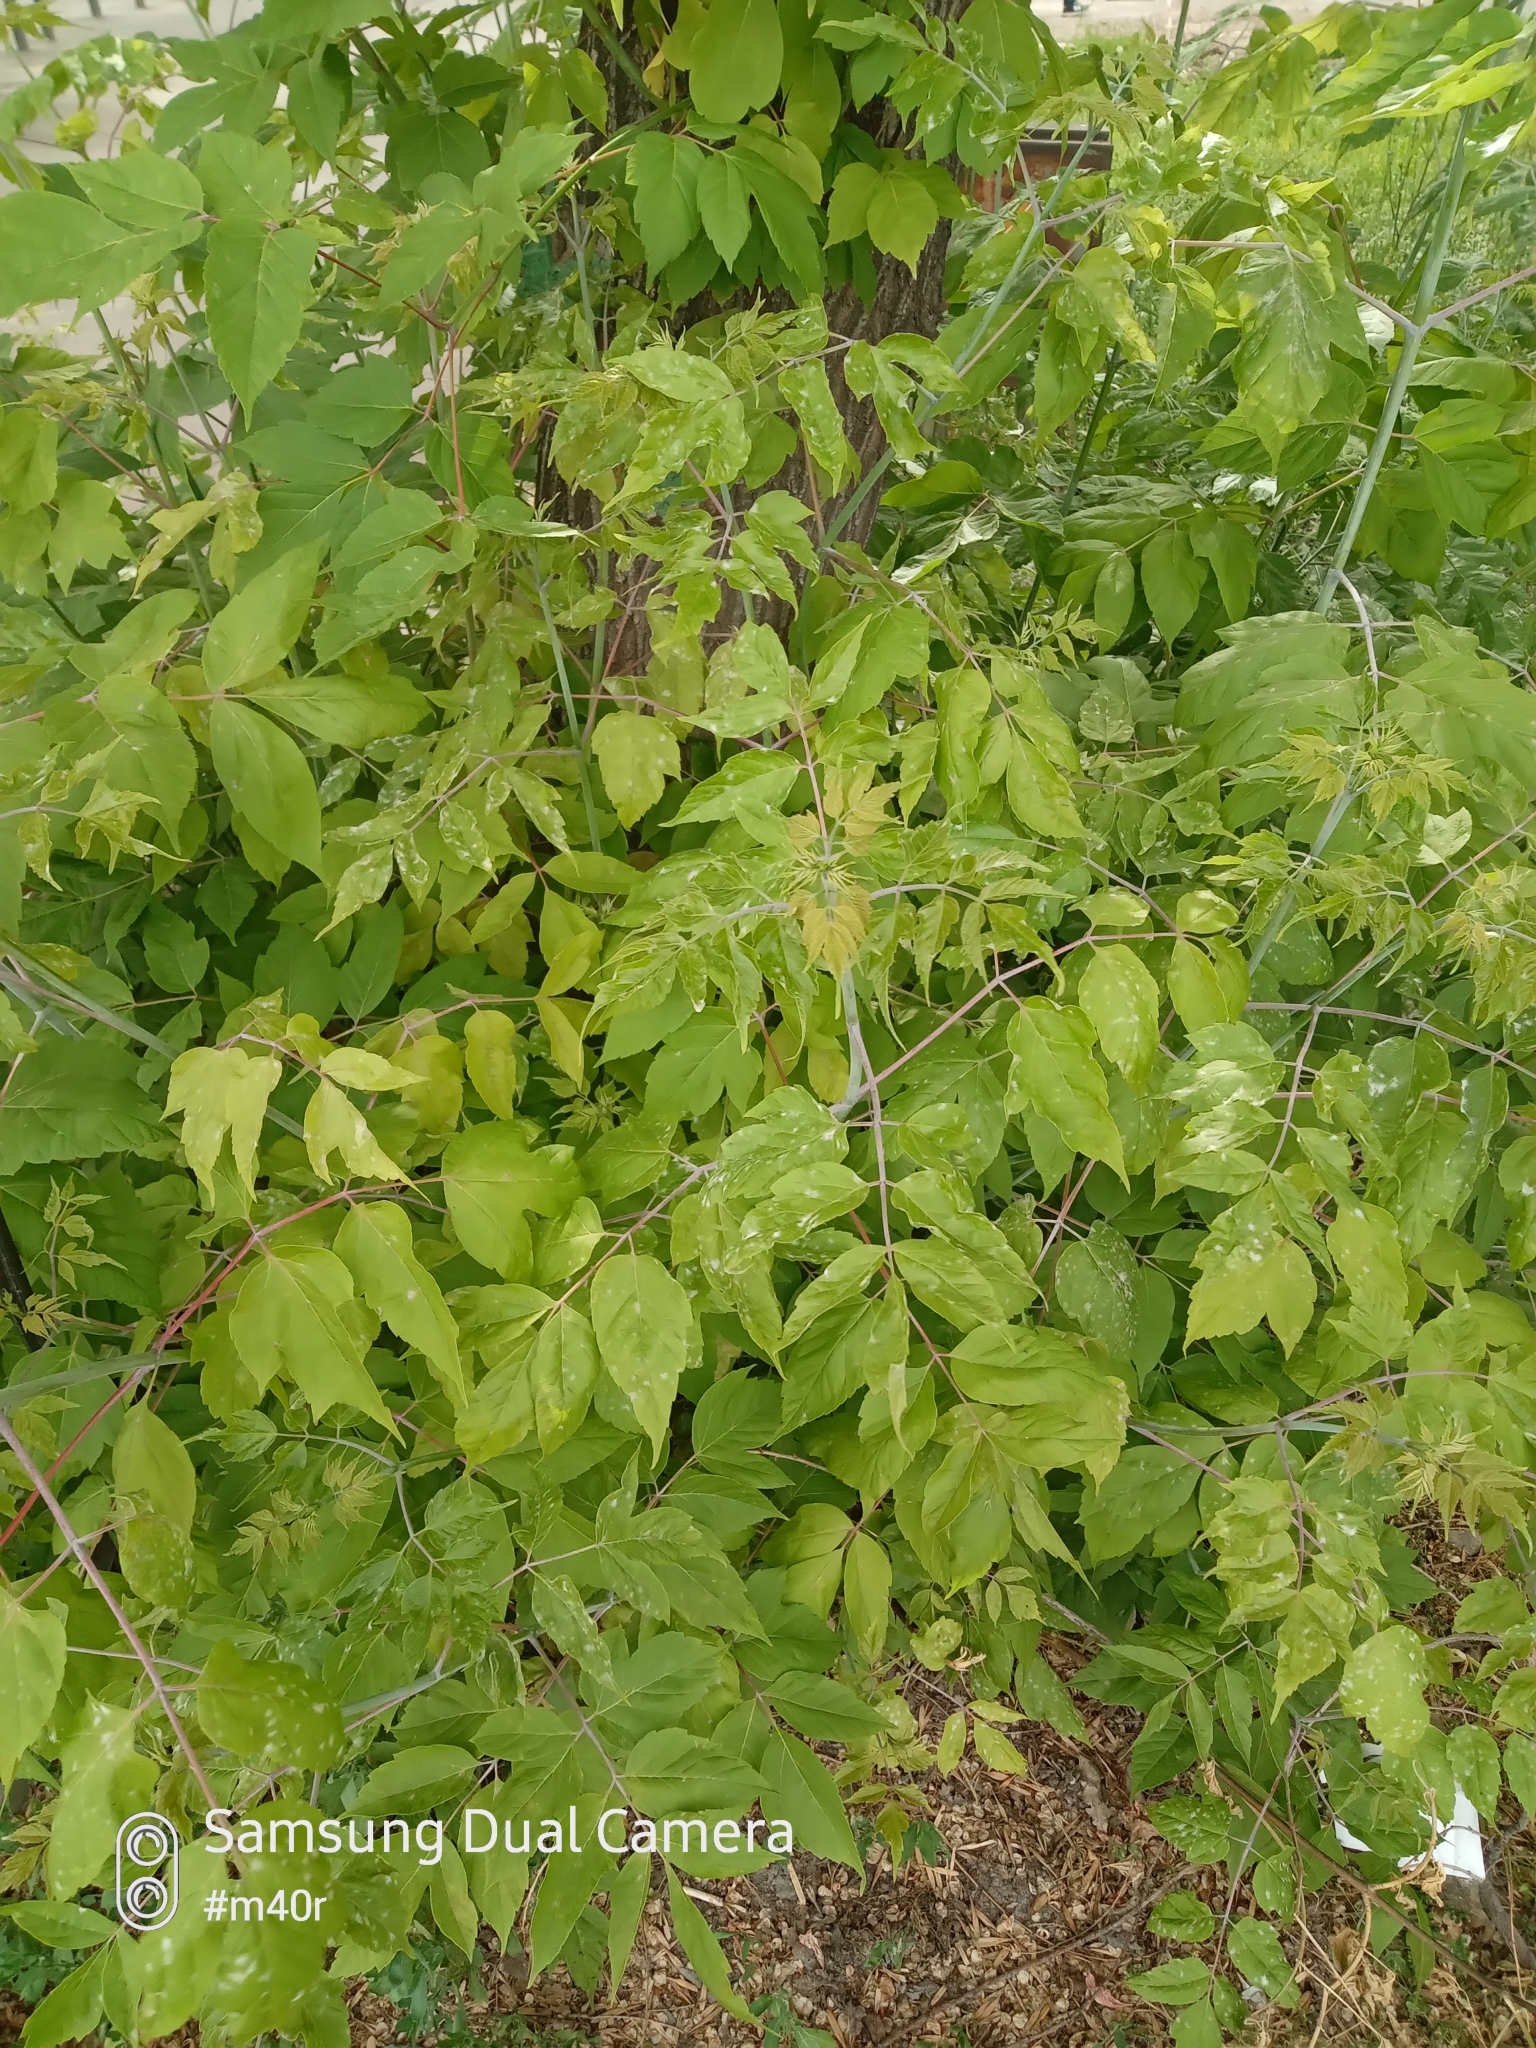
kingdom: Plantae
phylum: Tracheophyta
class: Magnoliopsida
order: Sapindales
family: Sapindaceae
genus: Acer
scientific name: Acer negundo
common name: Ashleaf maple
